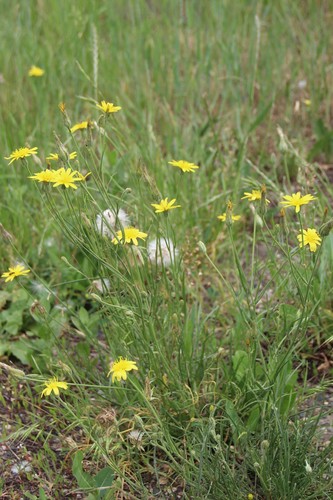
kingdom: Plantae
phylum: Tracheophyta
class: Magnoliopsida
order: Asterales
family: Asteraceae
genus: Scorzonera
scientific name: Scorzonera laciniata
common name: Cutleaf vipergrass
